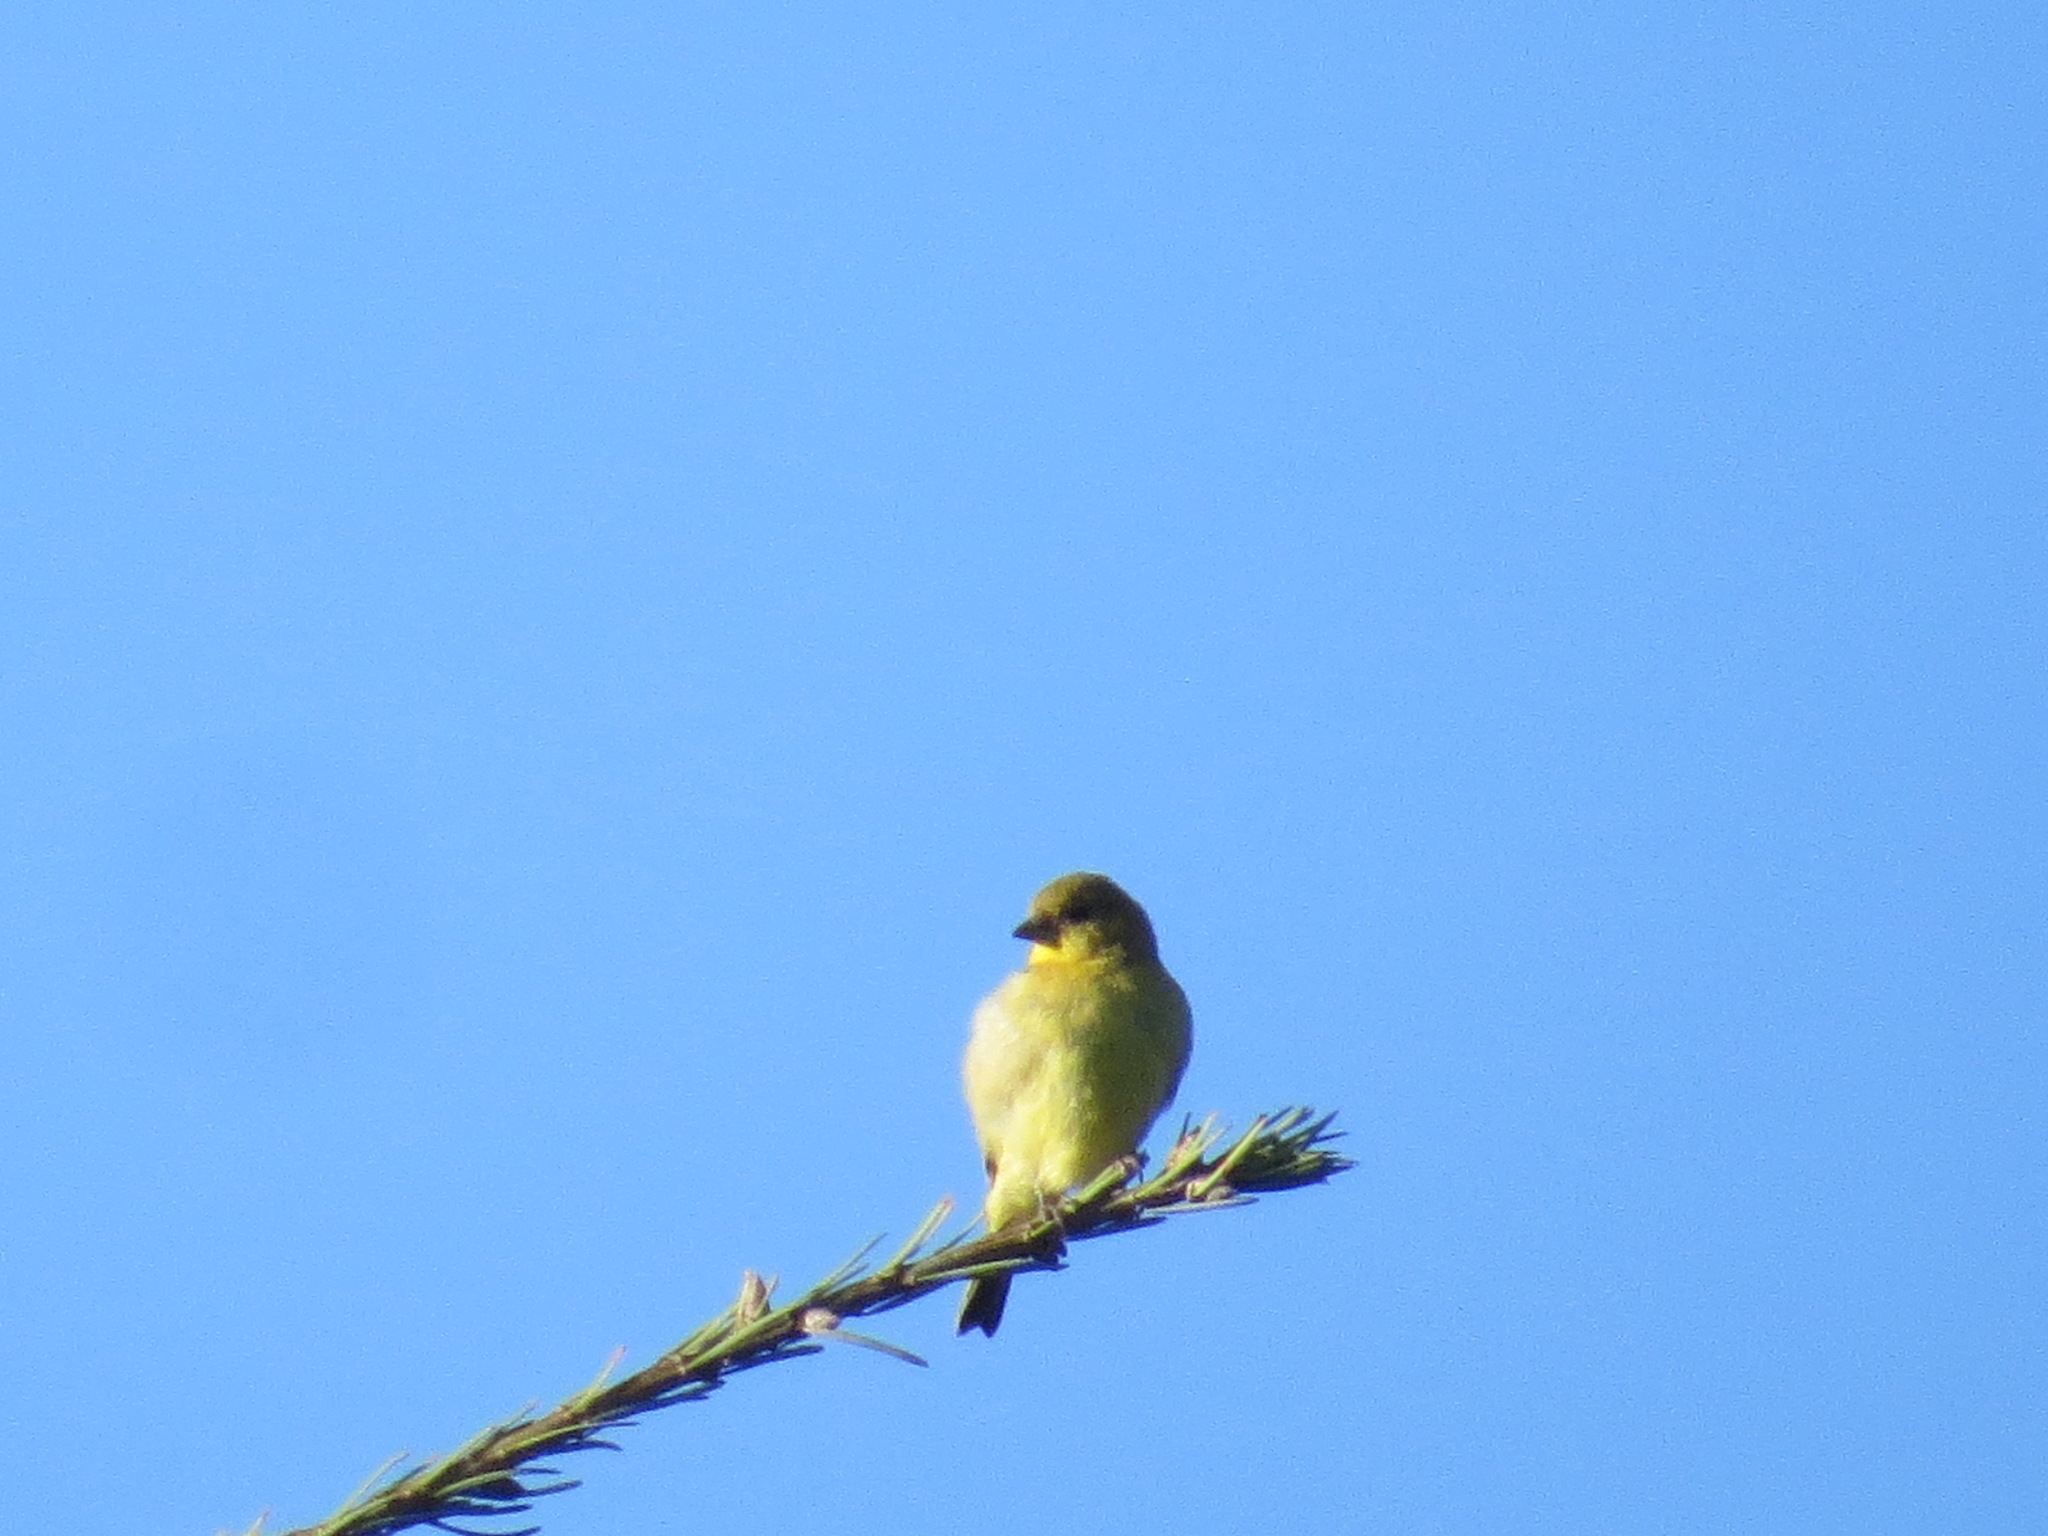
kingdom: Animalia
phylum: Chordata
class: Aves
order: Passeriformes
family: Fringillidae
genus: Spinus
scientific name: Spinus psaltria
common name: Lesser goldfinch
